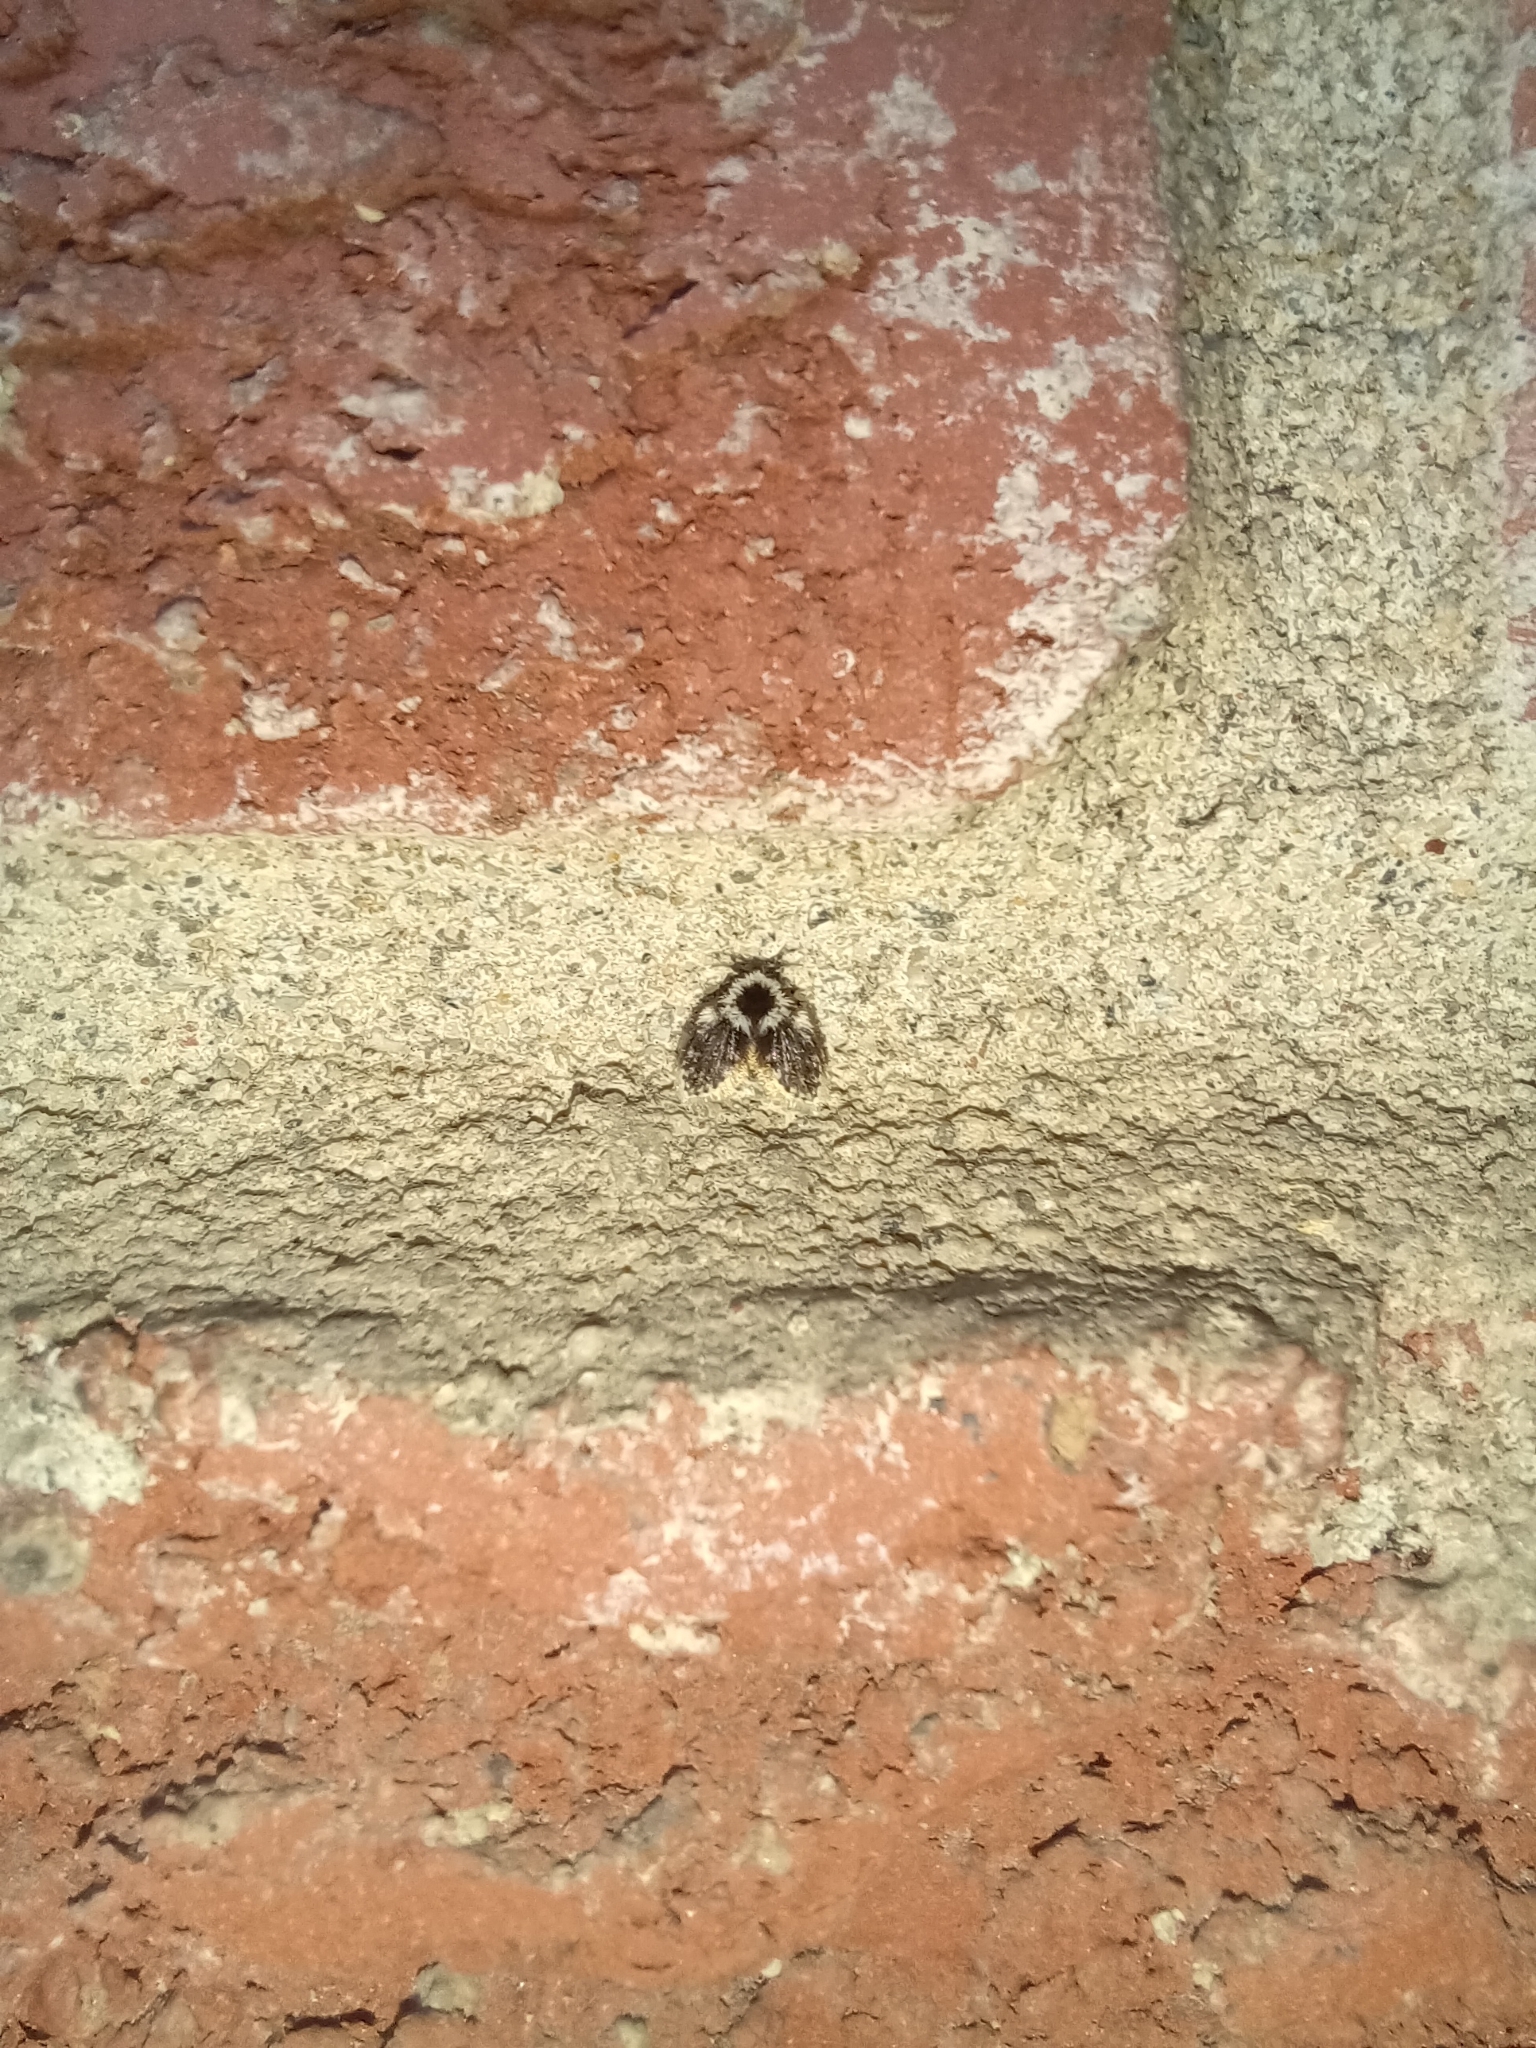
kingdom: Animalia
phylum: Arthropoda
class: Insecta
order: Diptera
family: Psychodidae
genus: Lepiseodina
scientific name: Lepiseodina
